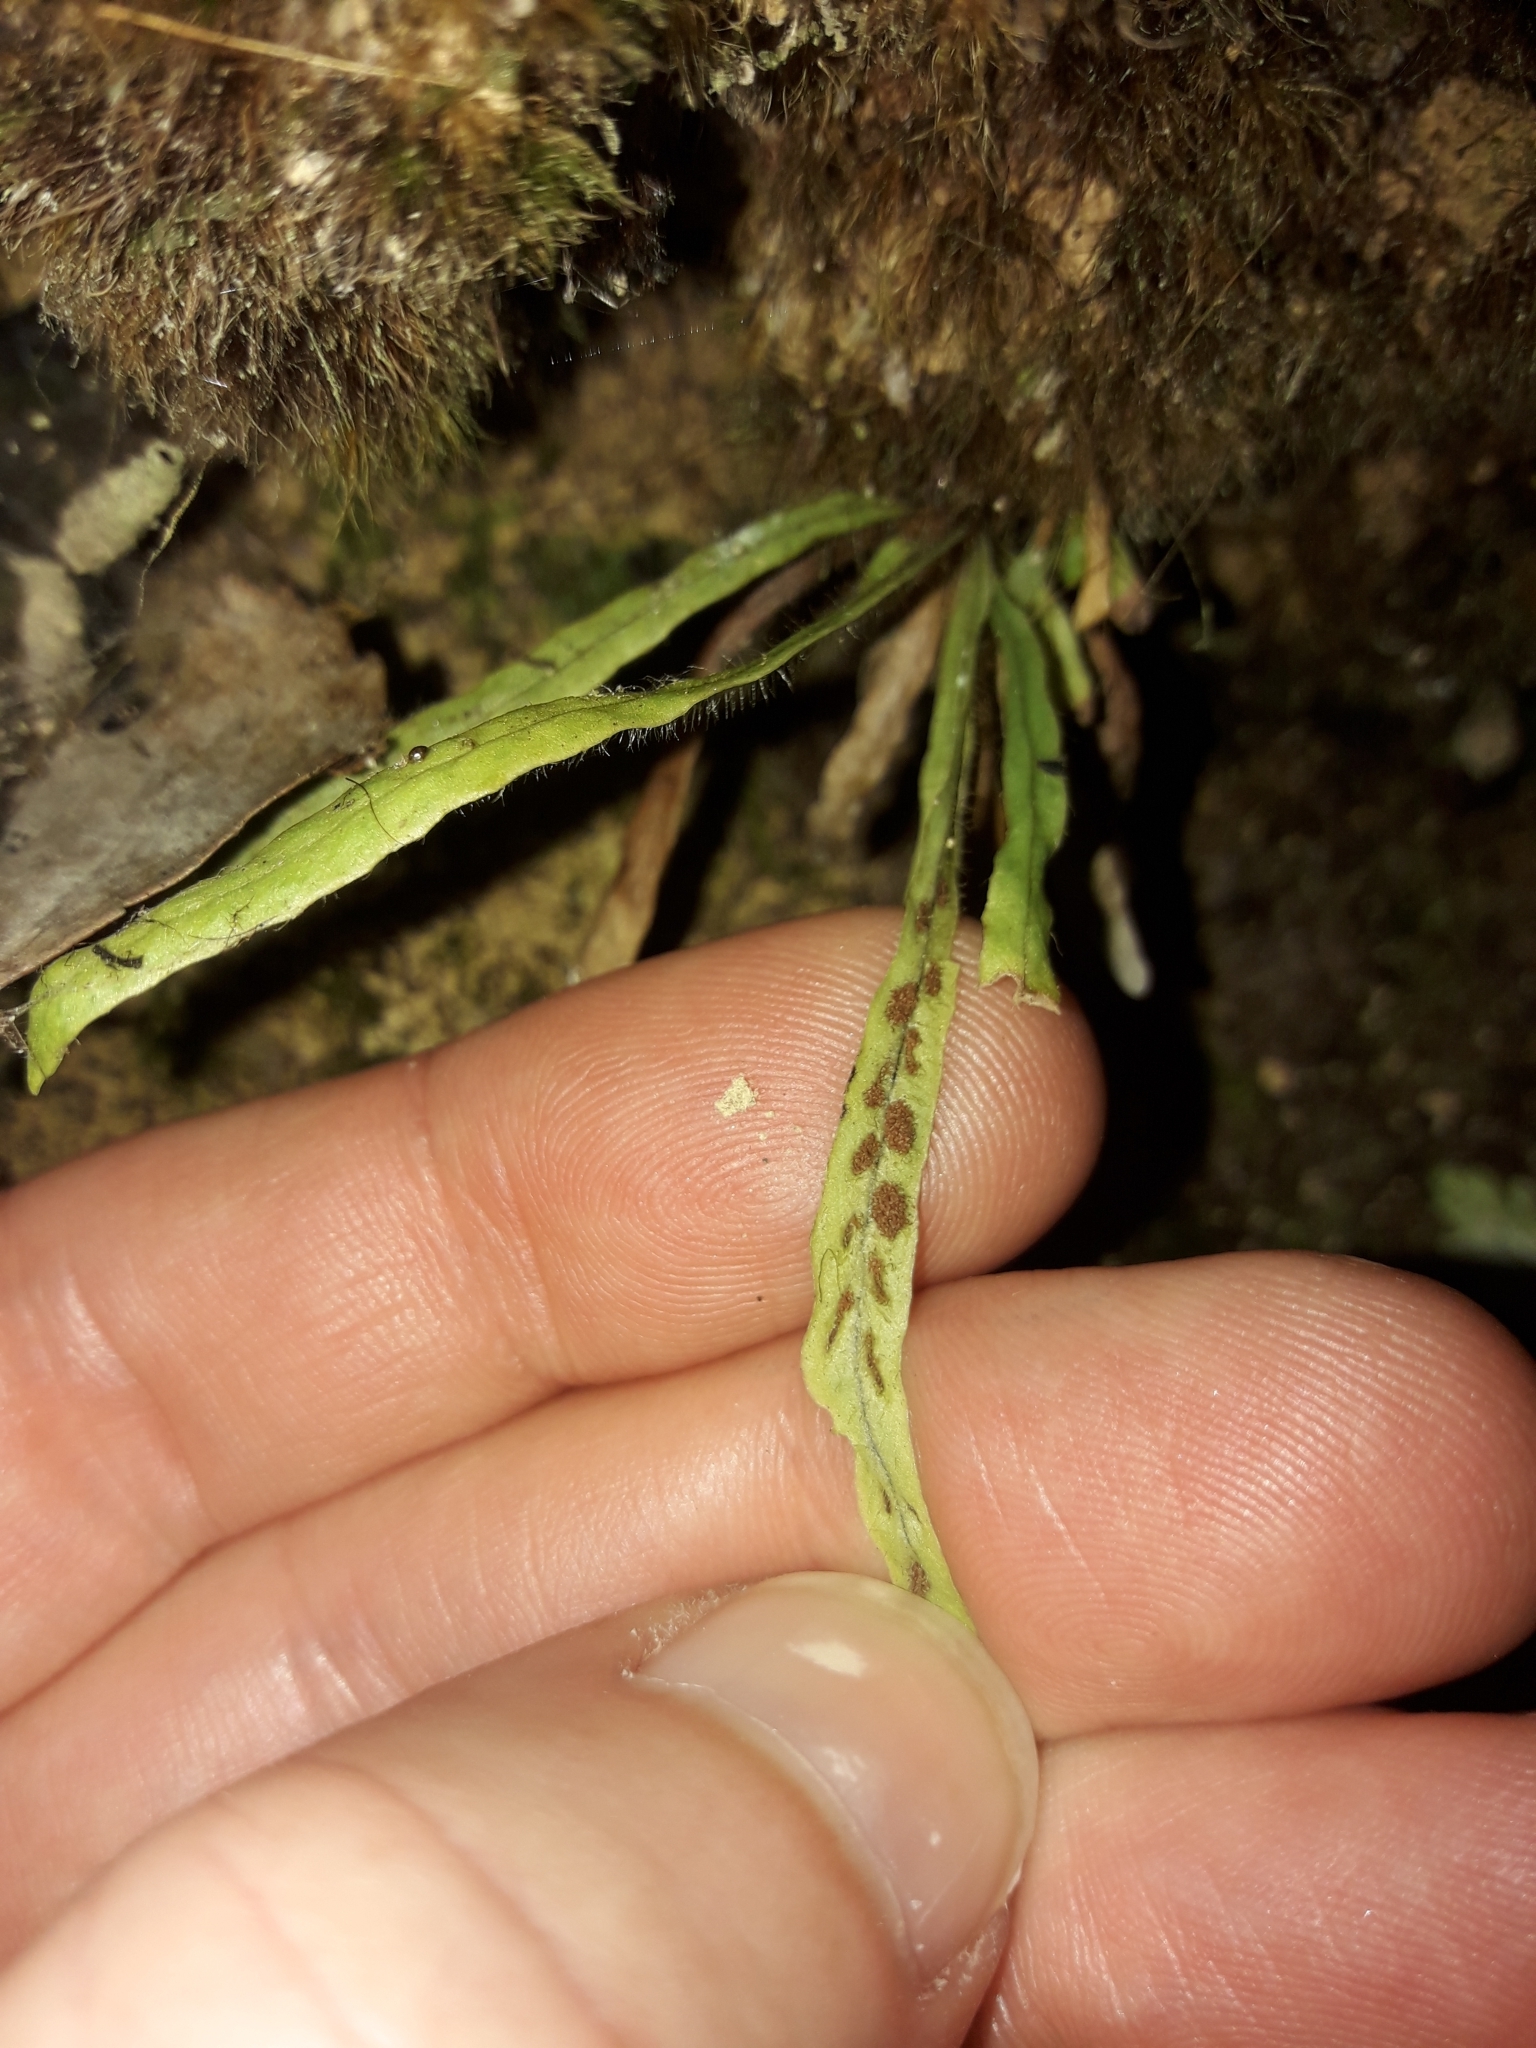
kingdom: Plantae
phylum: Tracheophyta
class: Polypodiopsida
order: Polypodiales
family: Polypodiaceae
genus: Notogrammitis
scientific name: Notogrammitis ciliata
